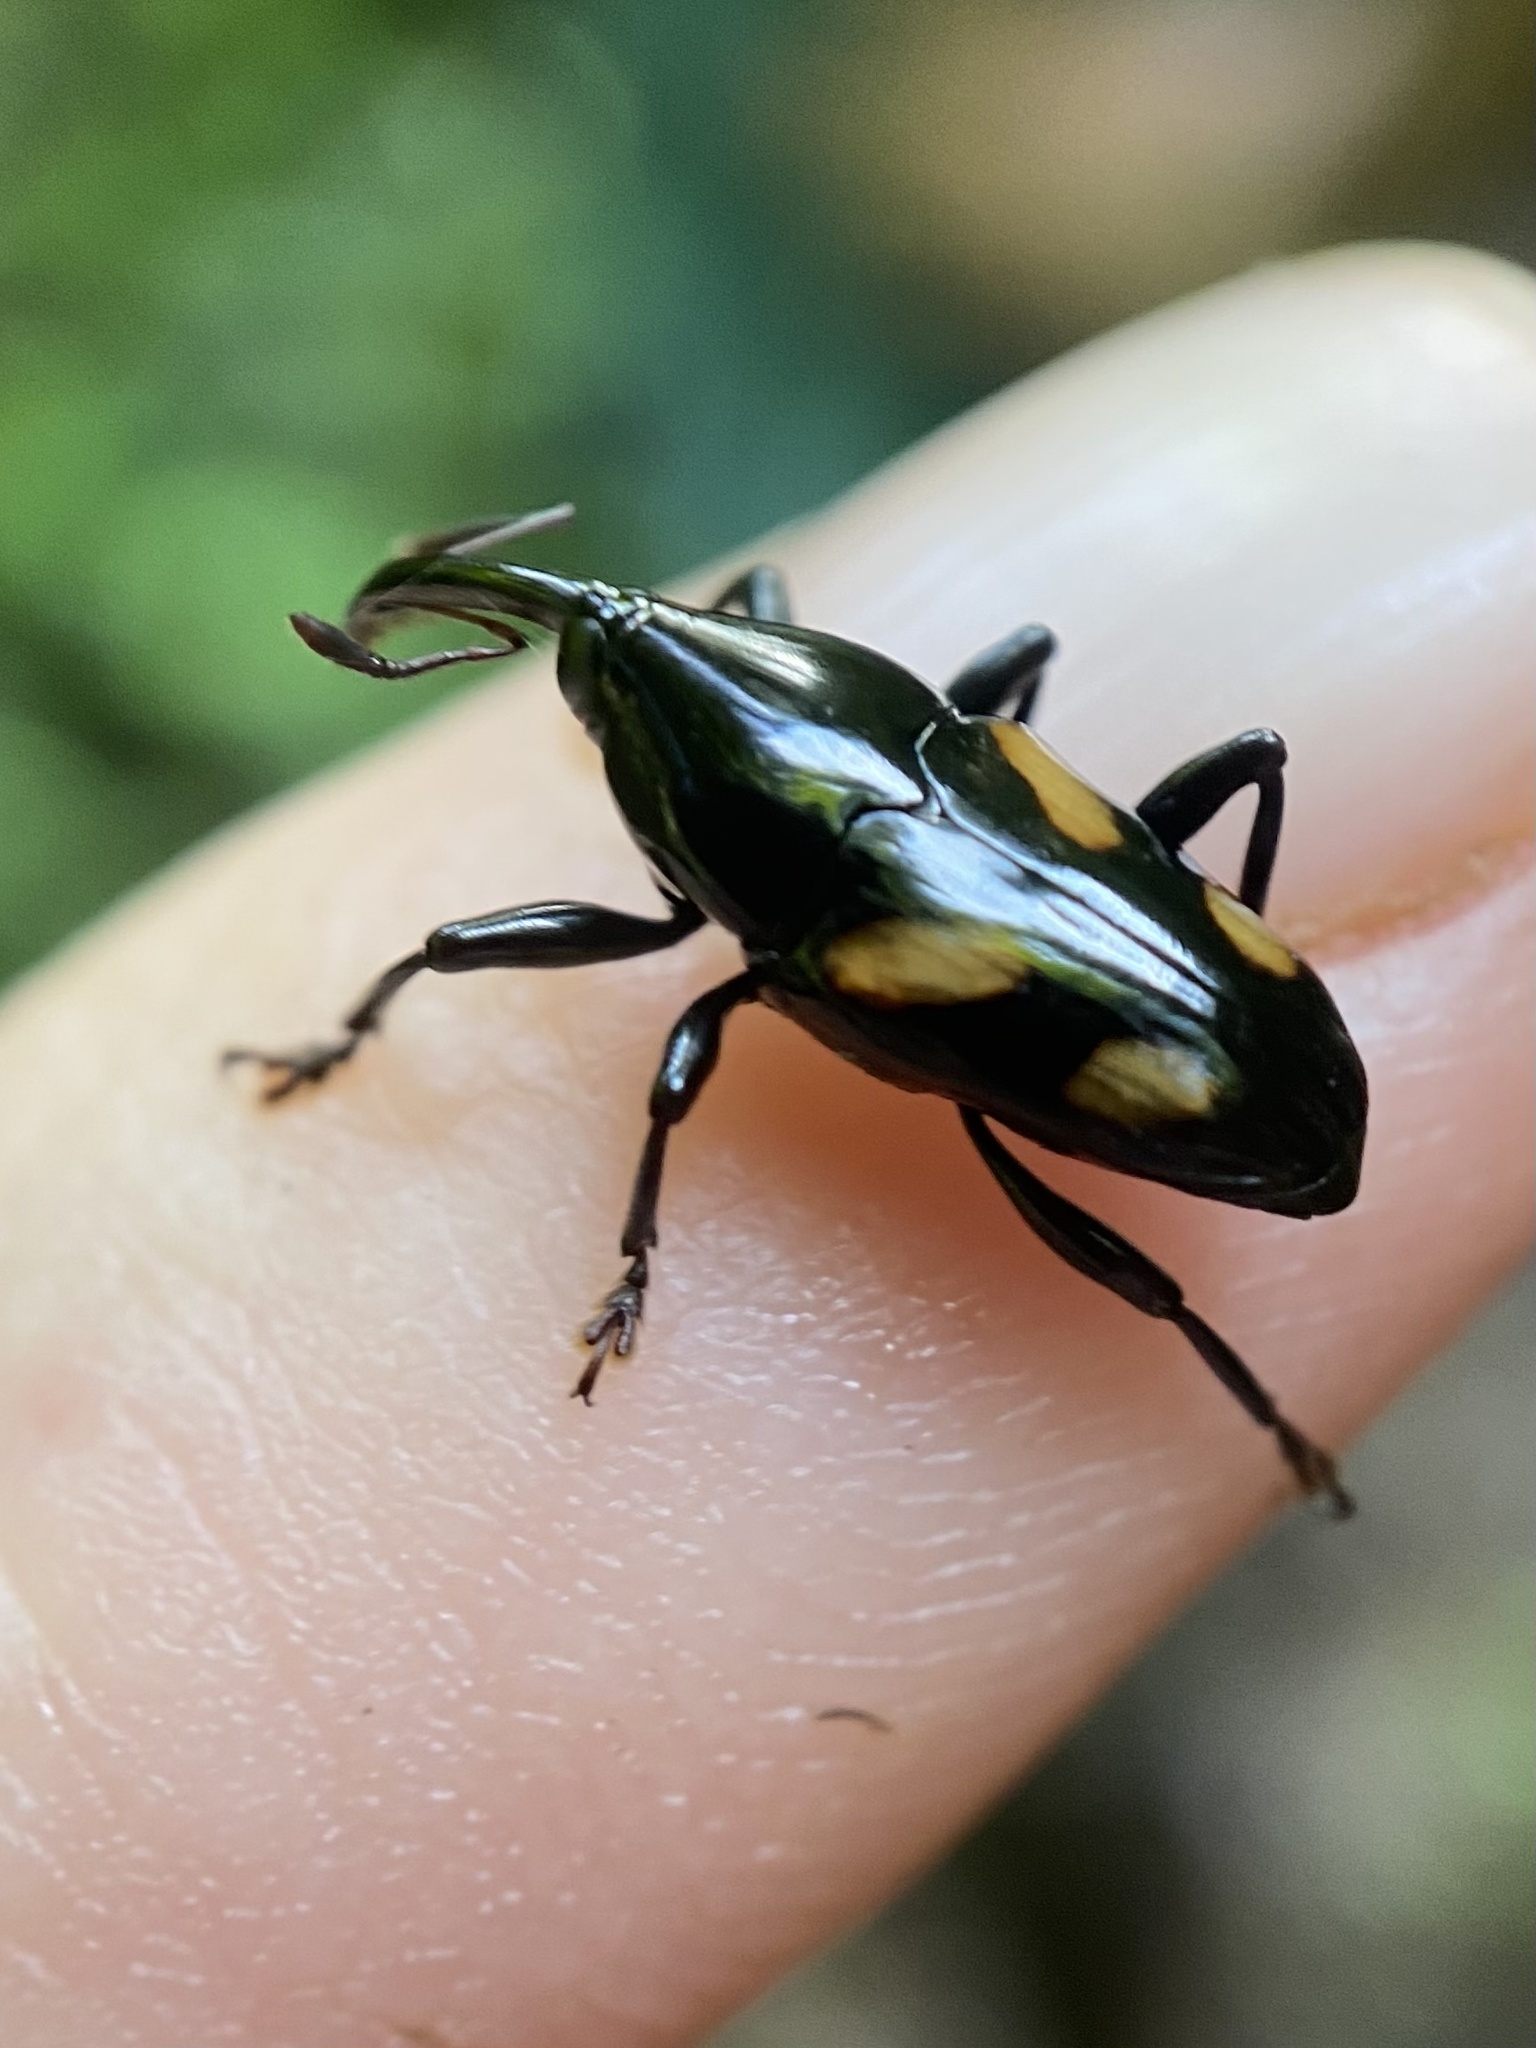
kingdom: Animalia
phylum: Arthropoda
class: Insecta
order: Coleoptera
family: Curculionidae
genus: Conoproctus
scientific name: Conoproctus quadripustulatus
